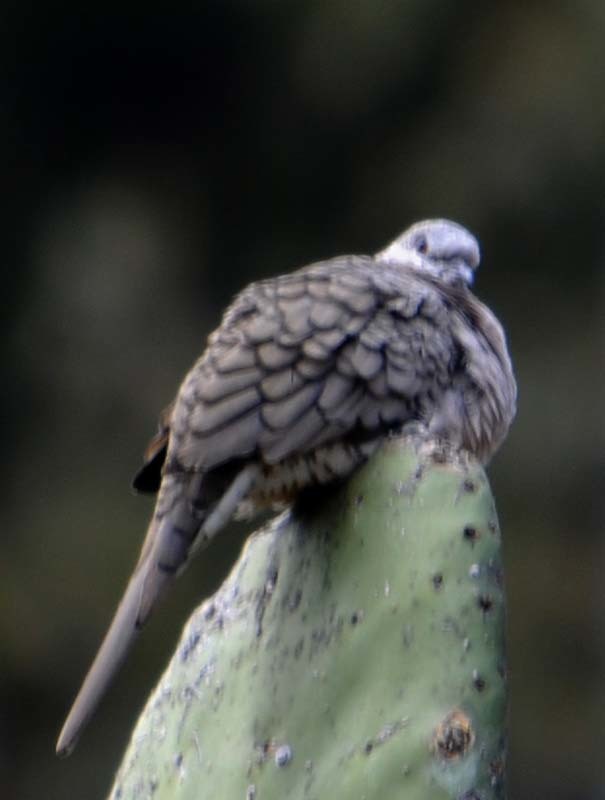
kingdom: Animalia
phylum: Chordata
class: Aves
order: Columbiformes
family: Columbidae
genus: Columbina
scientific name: Columbina inca
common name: Inca dove
